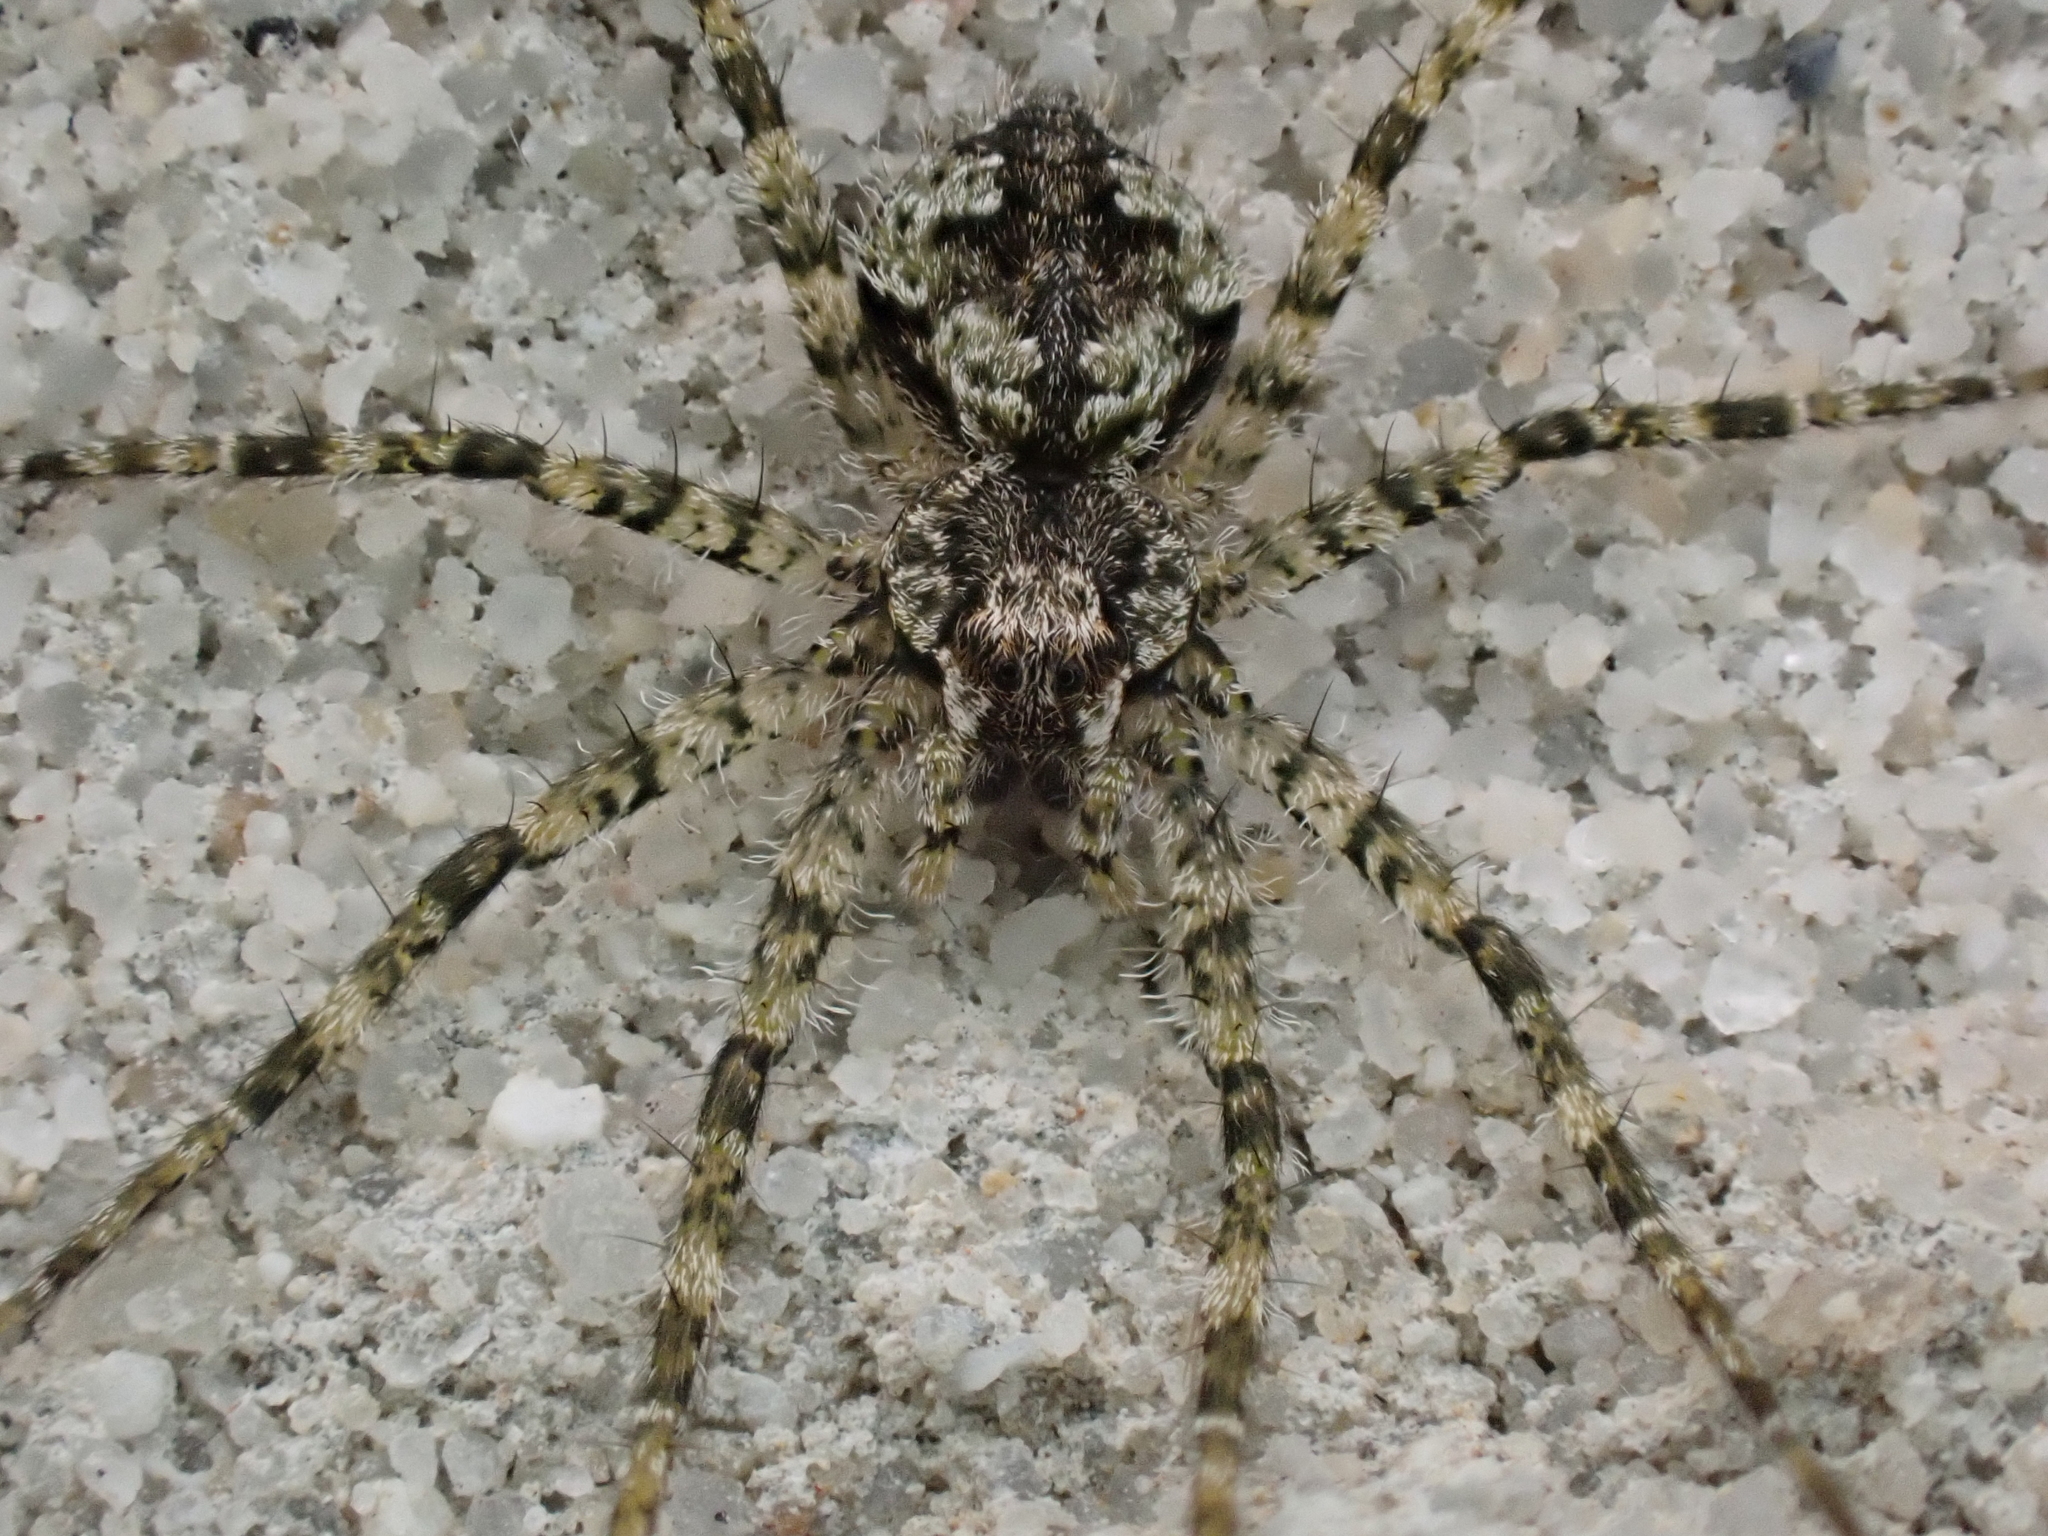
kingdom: Animalia
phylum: Arthropoda
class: Arachnida
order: Araneae
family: Pisauridae
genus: Dolomedes
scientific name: Dolomedes albineus
